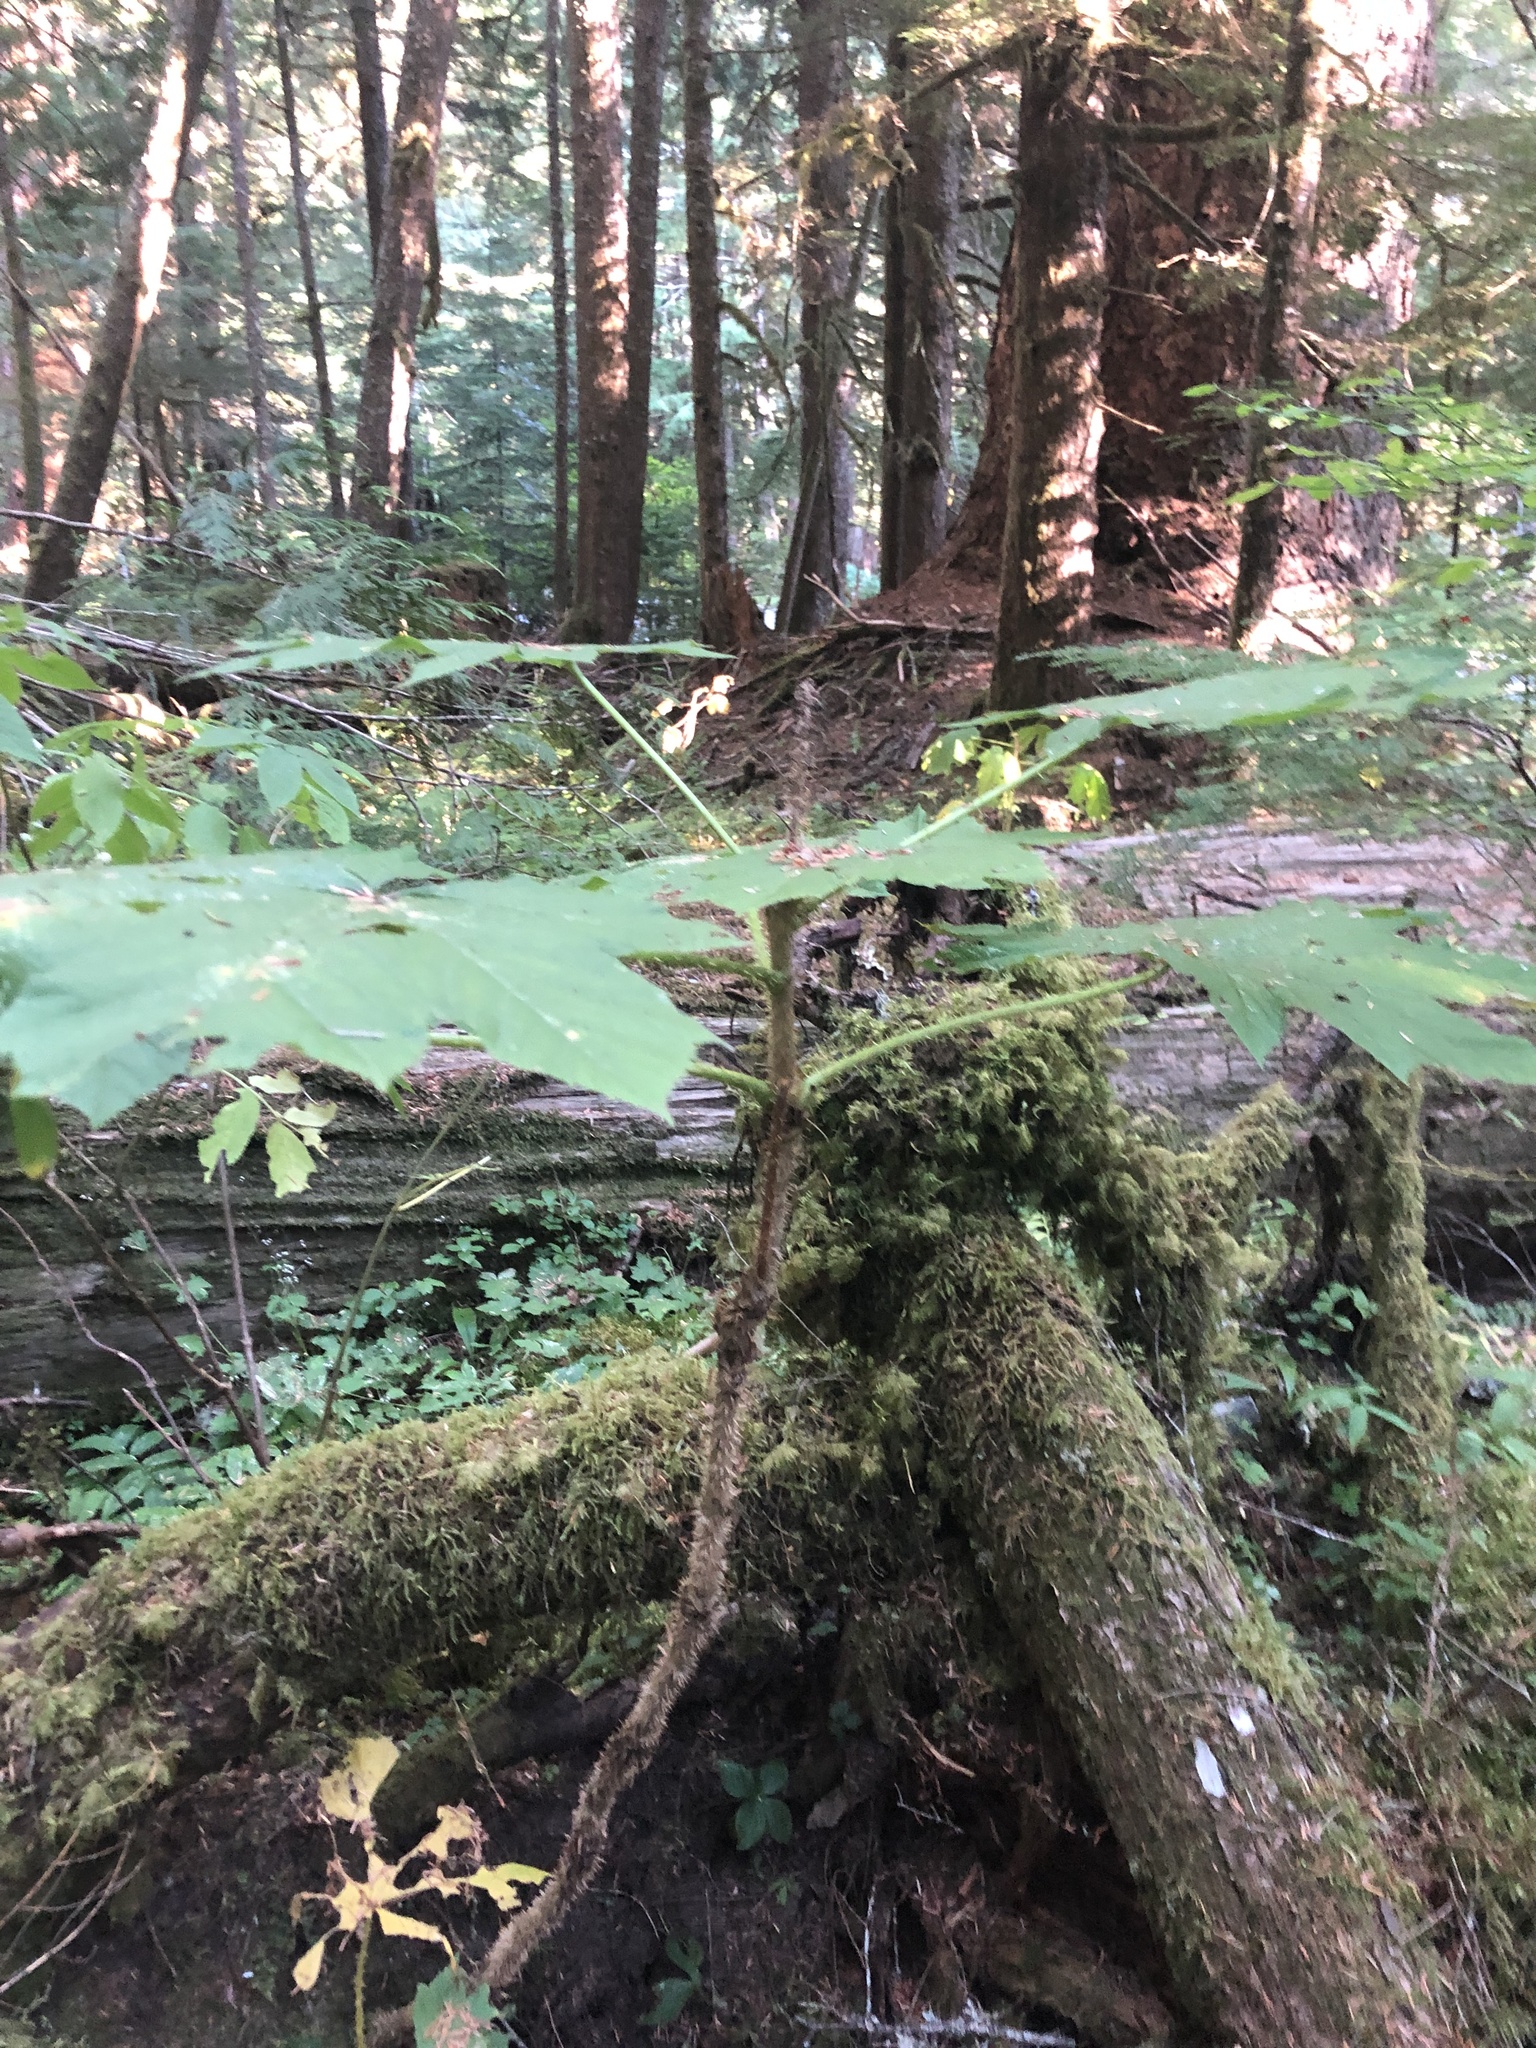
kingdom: Plantae
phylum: Tracheophyta
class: Magnoliopsida
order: Apiales
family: Araliaceae
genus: Oplopanax
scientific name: Oplopanax horridus
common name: Devil's walking-stick
